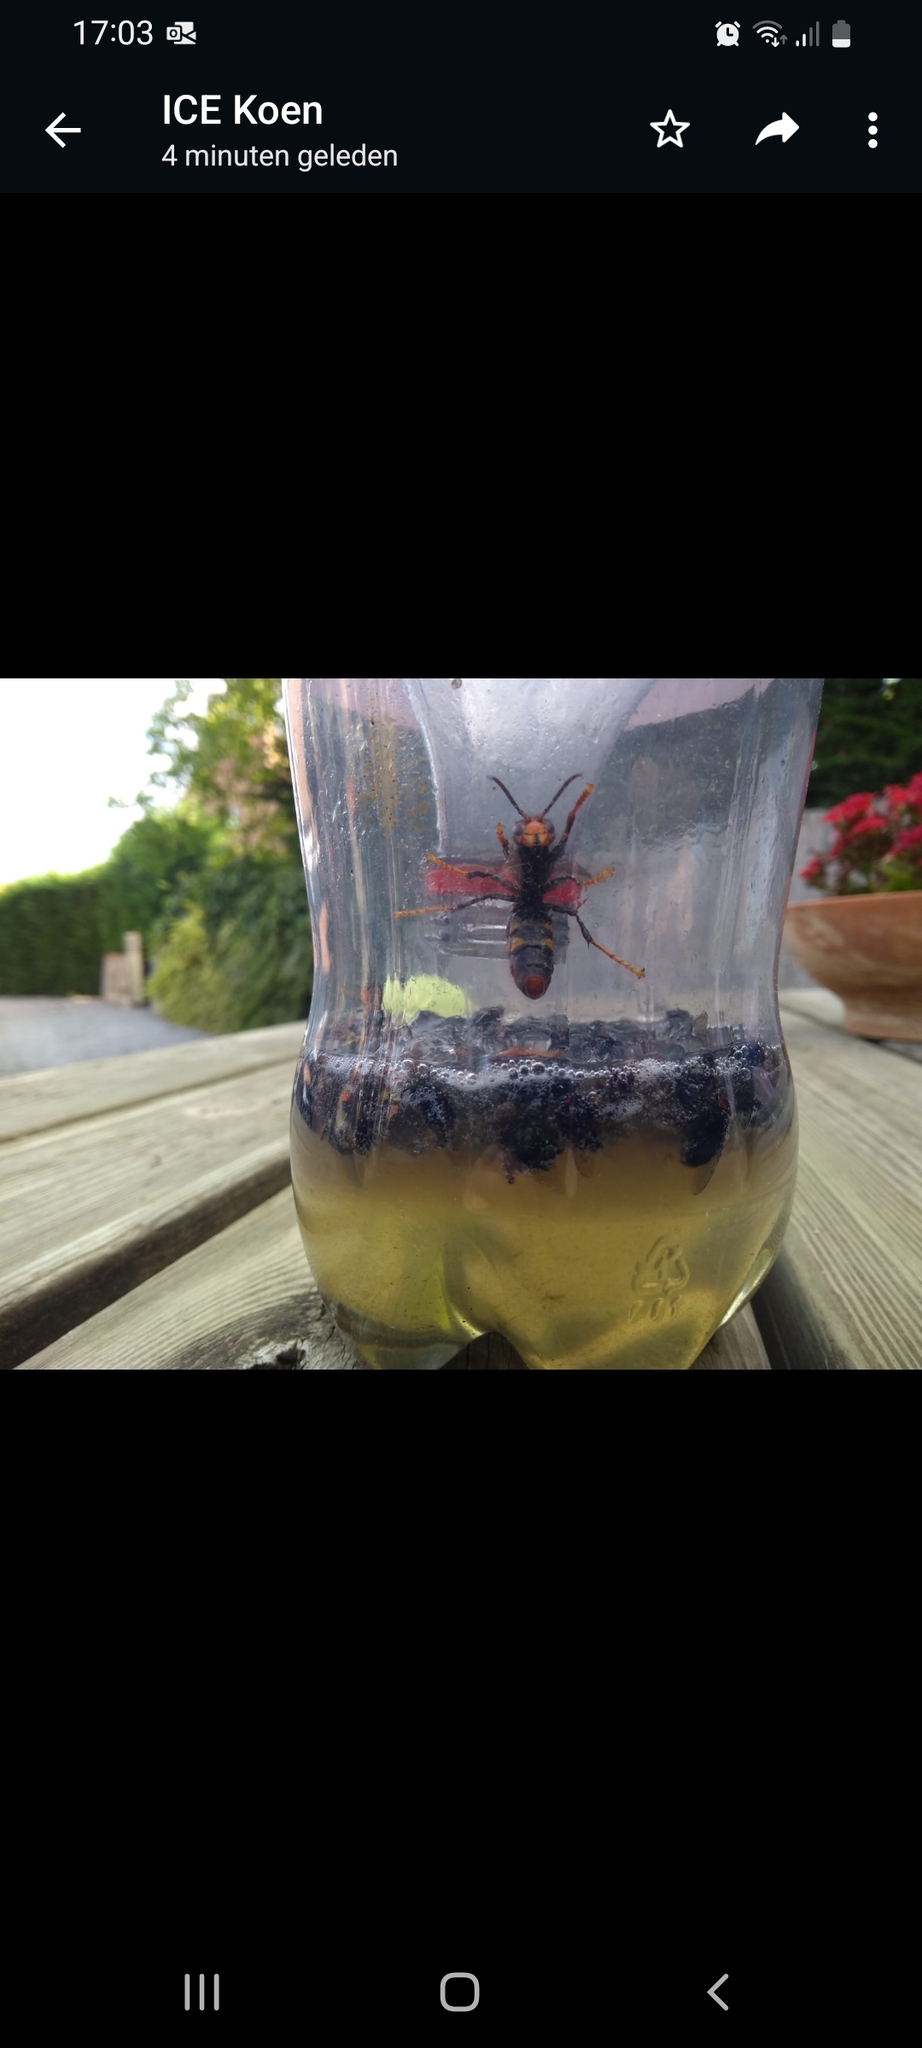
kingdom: Animalia
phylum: Arthropoda
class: Insecta
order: Hymenoptera
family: Vespidae
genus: Vespa
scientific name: Vespa velutina
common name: Asian hornet
